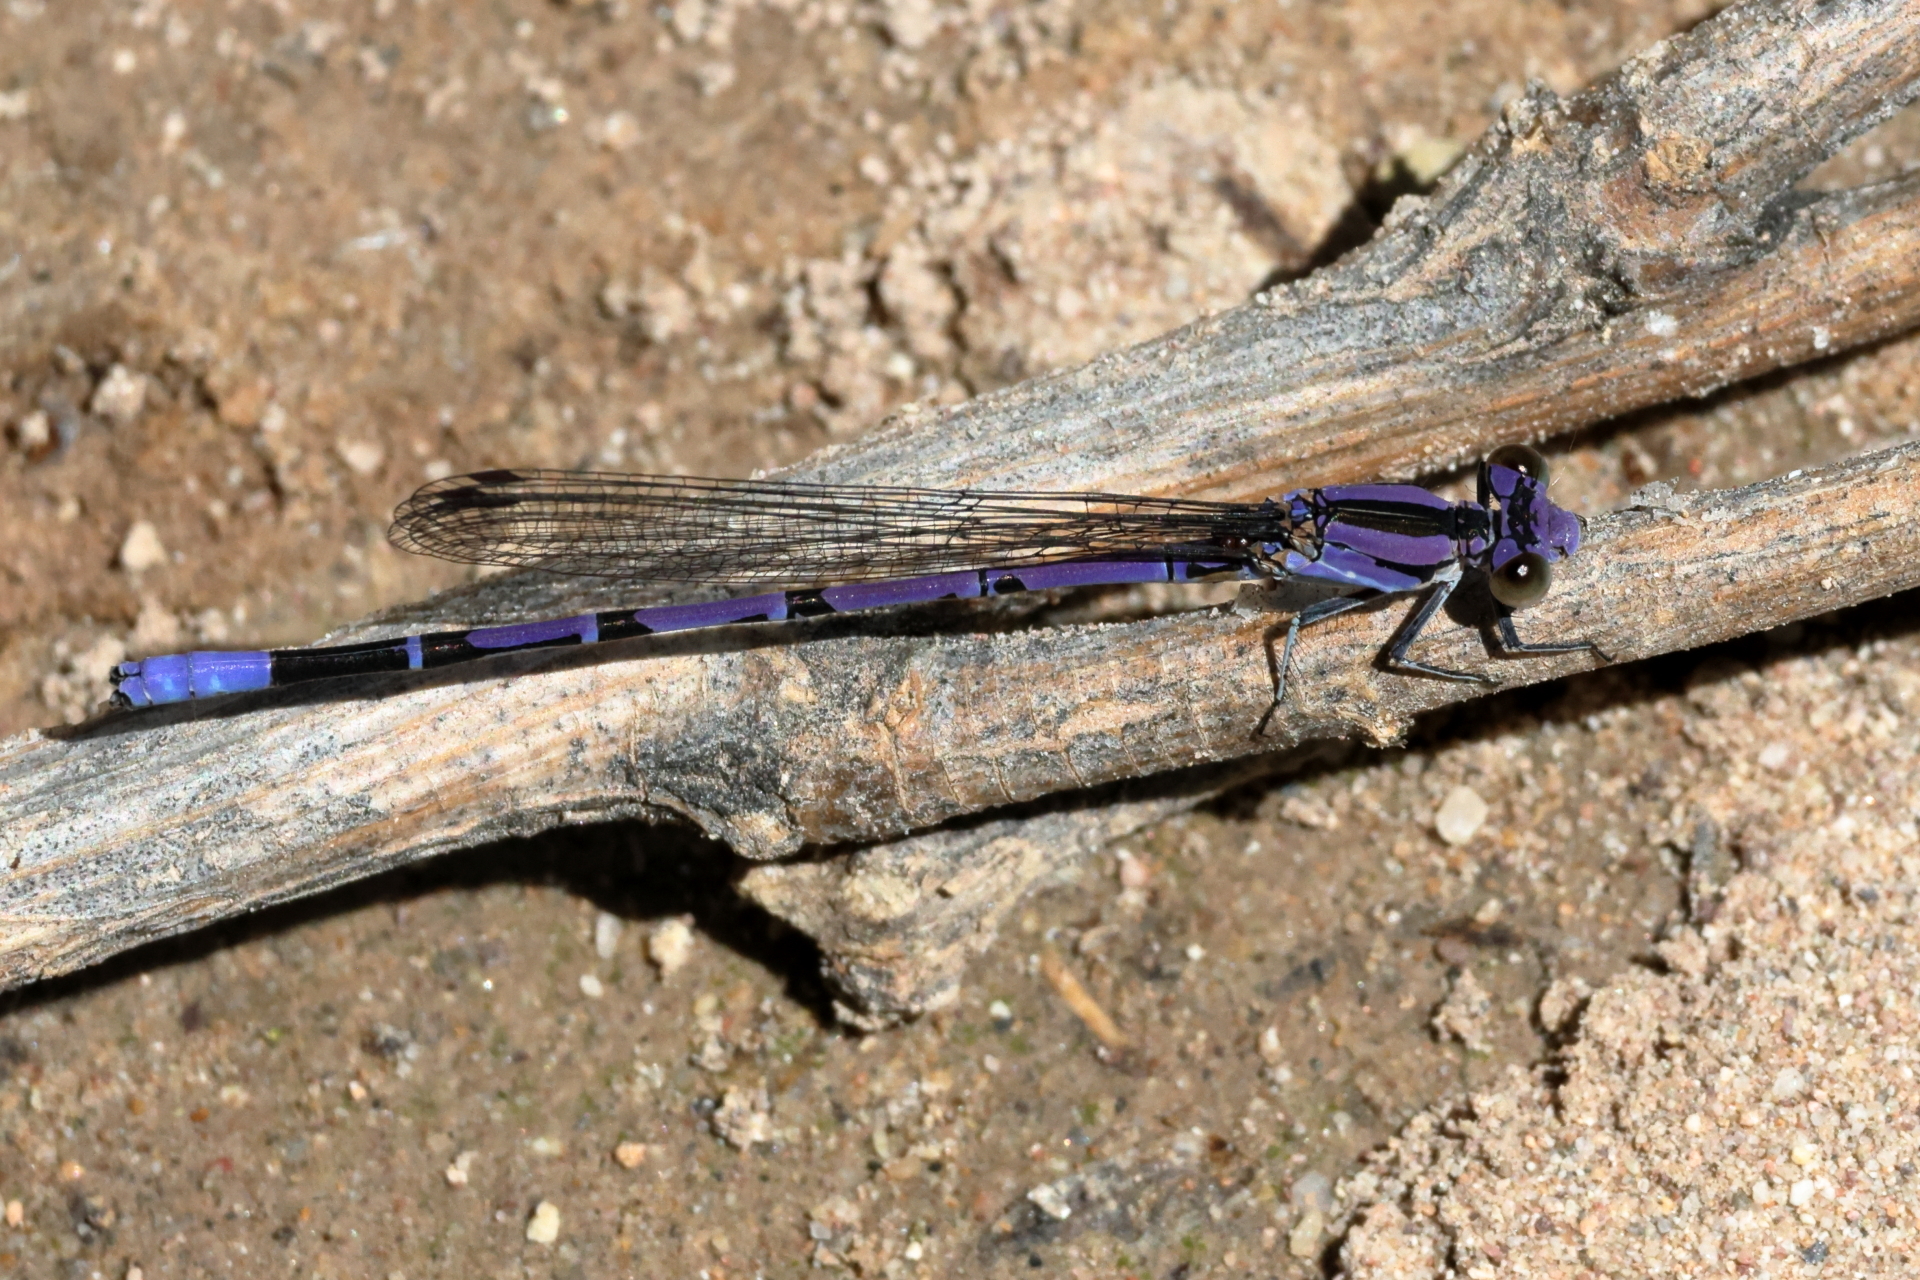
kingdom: Animalia
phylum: Arthropoda
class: Insecta
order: Odonata
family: Coenagrionidae
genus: Argia
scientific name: Argia funebris
